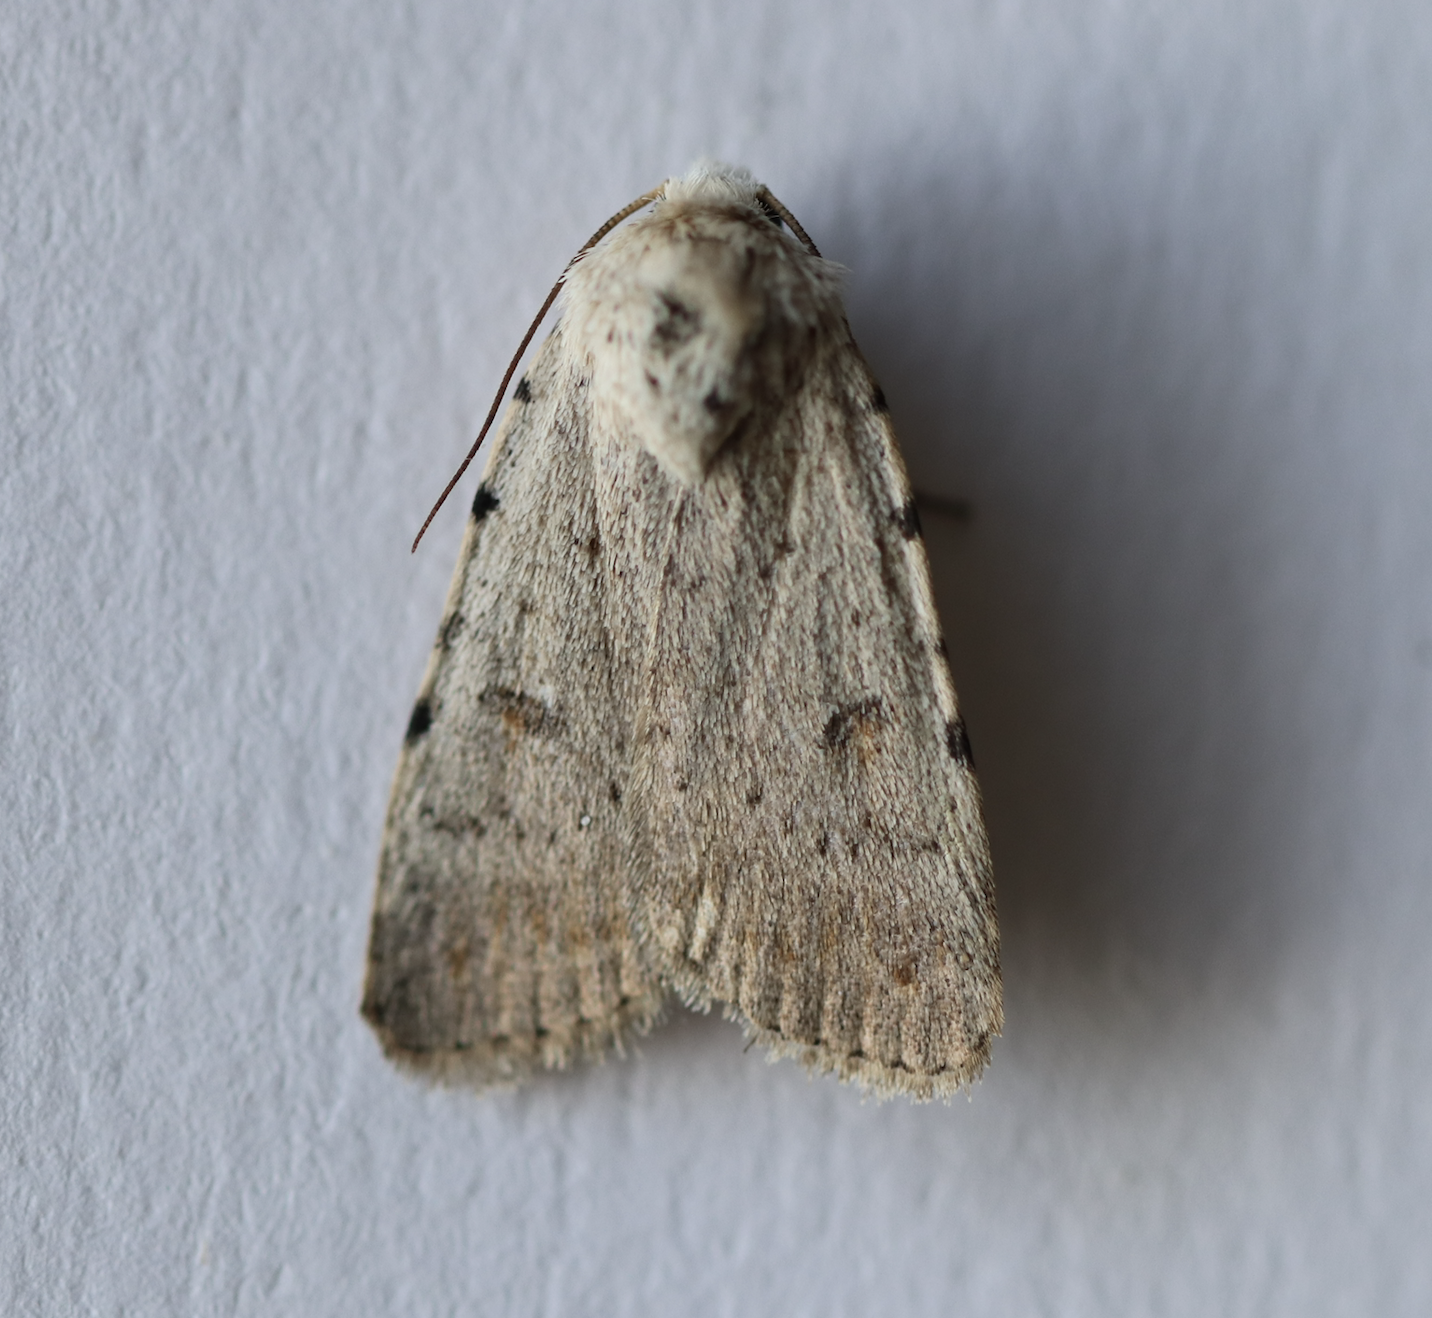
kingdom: Animalia
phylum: Arthropoda
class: Insecta
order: Lepidoptera
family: Noctuidae
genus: Caradrina
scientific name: Caradrina clavipalpis
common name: Pale mottled willow
